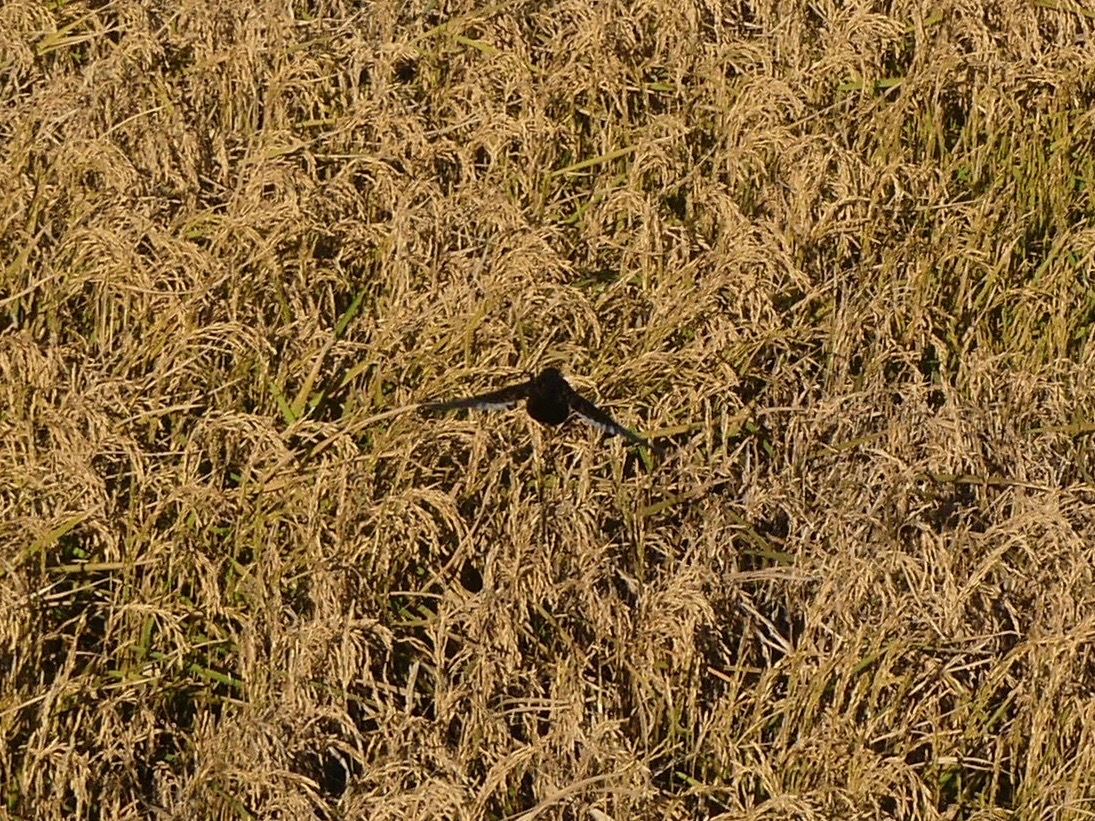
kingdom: Animalia
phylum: Chordata
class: Aves
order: Gruiformes
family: Rallidae
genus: Coturnicops
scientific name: Coturnicops noveboracensis
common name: Yellow rail
